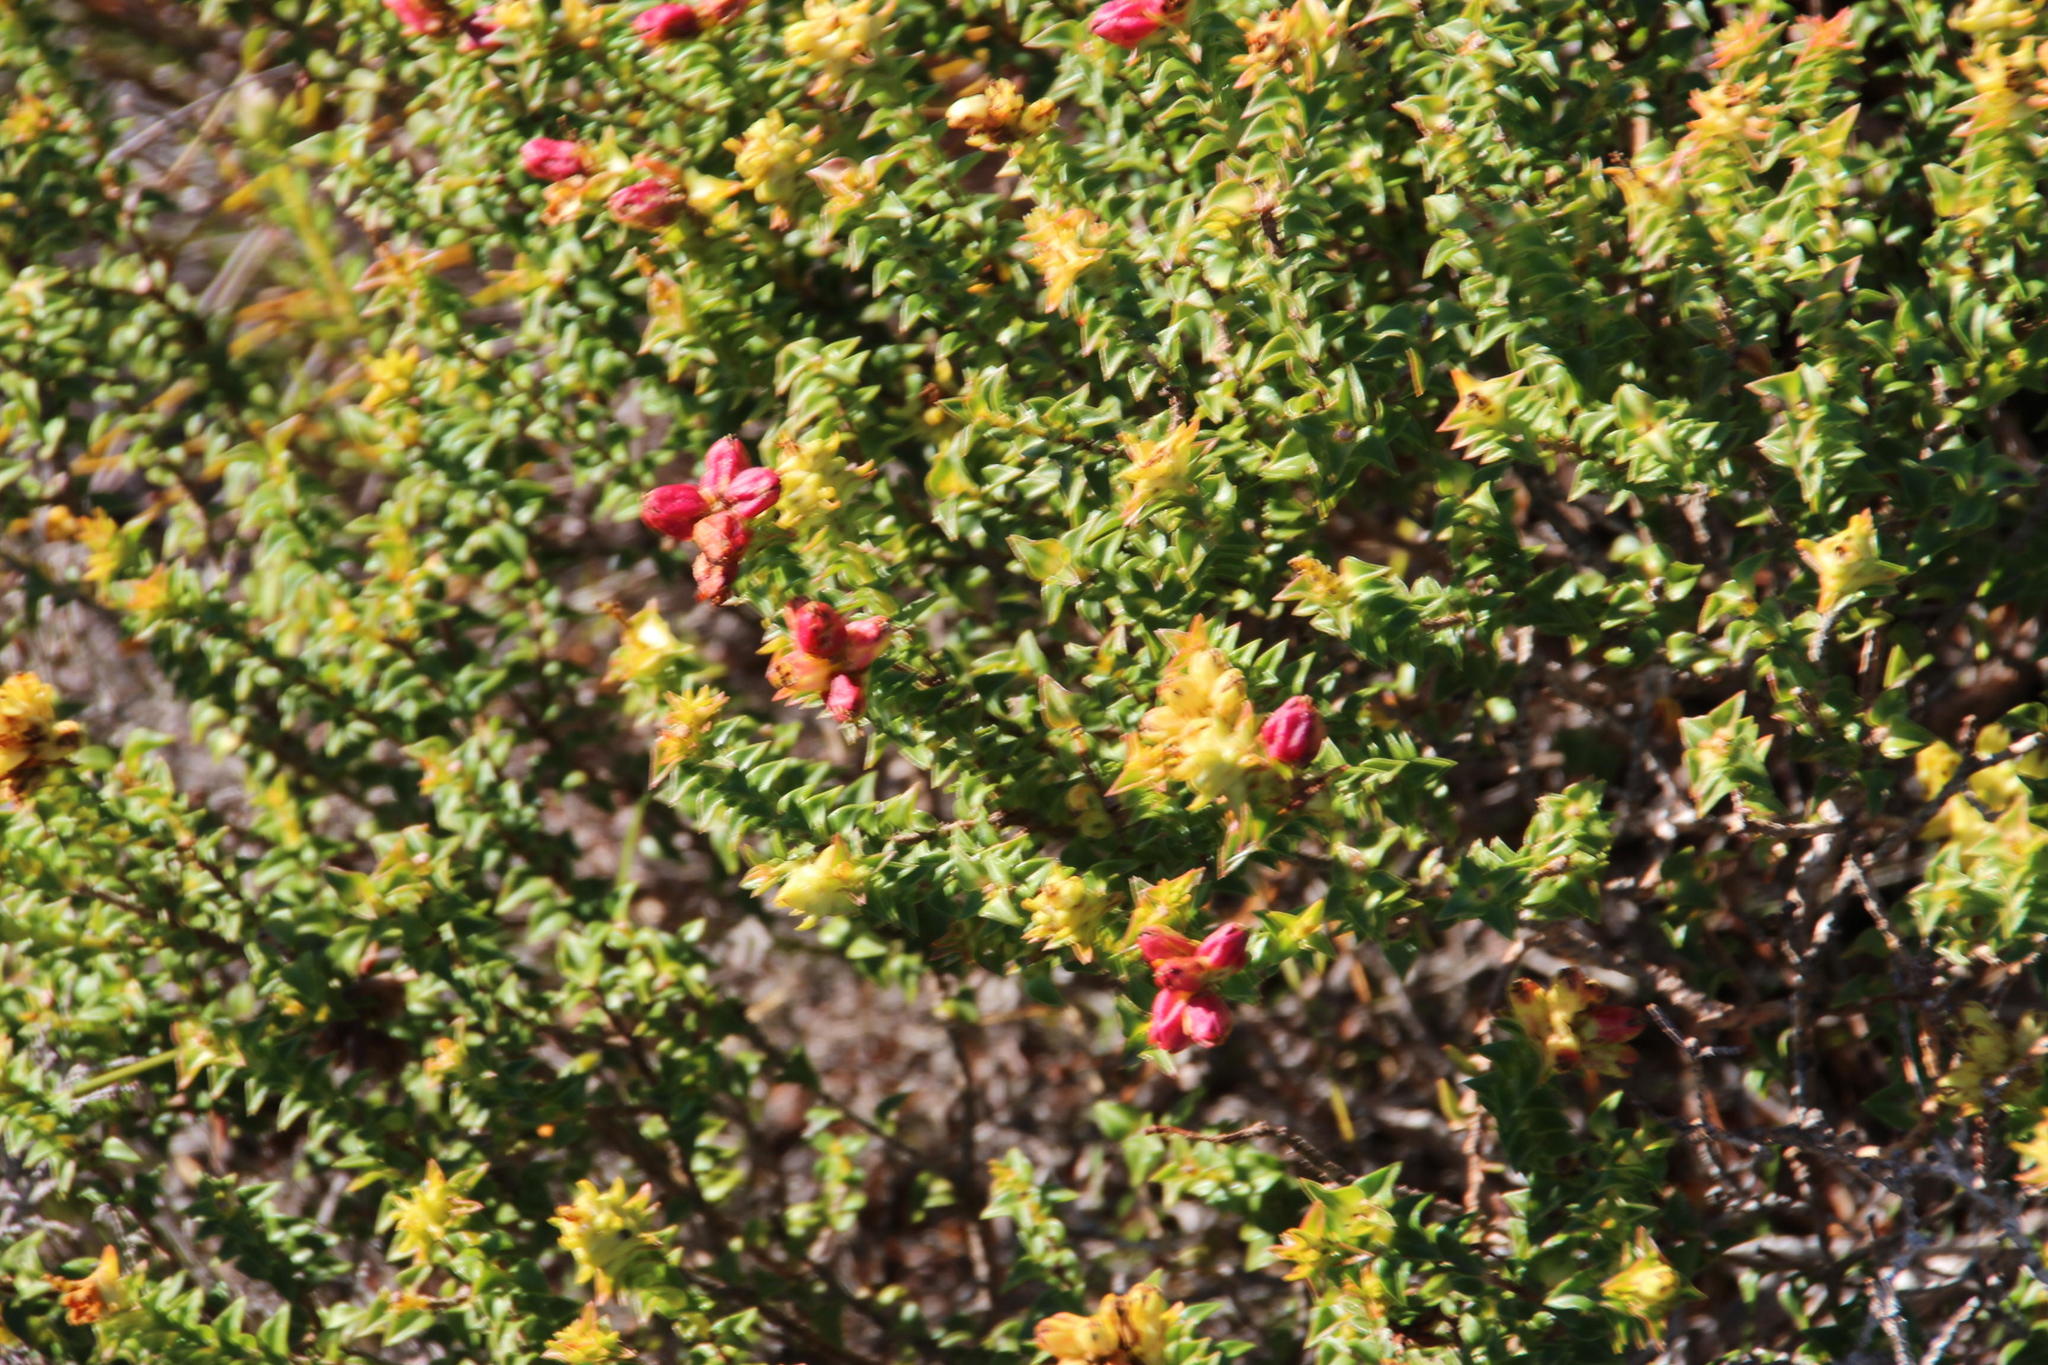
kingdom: Plantae
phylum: Tracheophyta
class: Magnoliopsida
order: Myrtales
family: Penaeaceae
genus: Penaea
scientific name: Penaea mucronata
